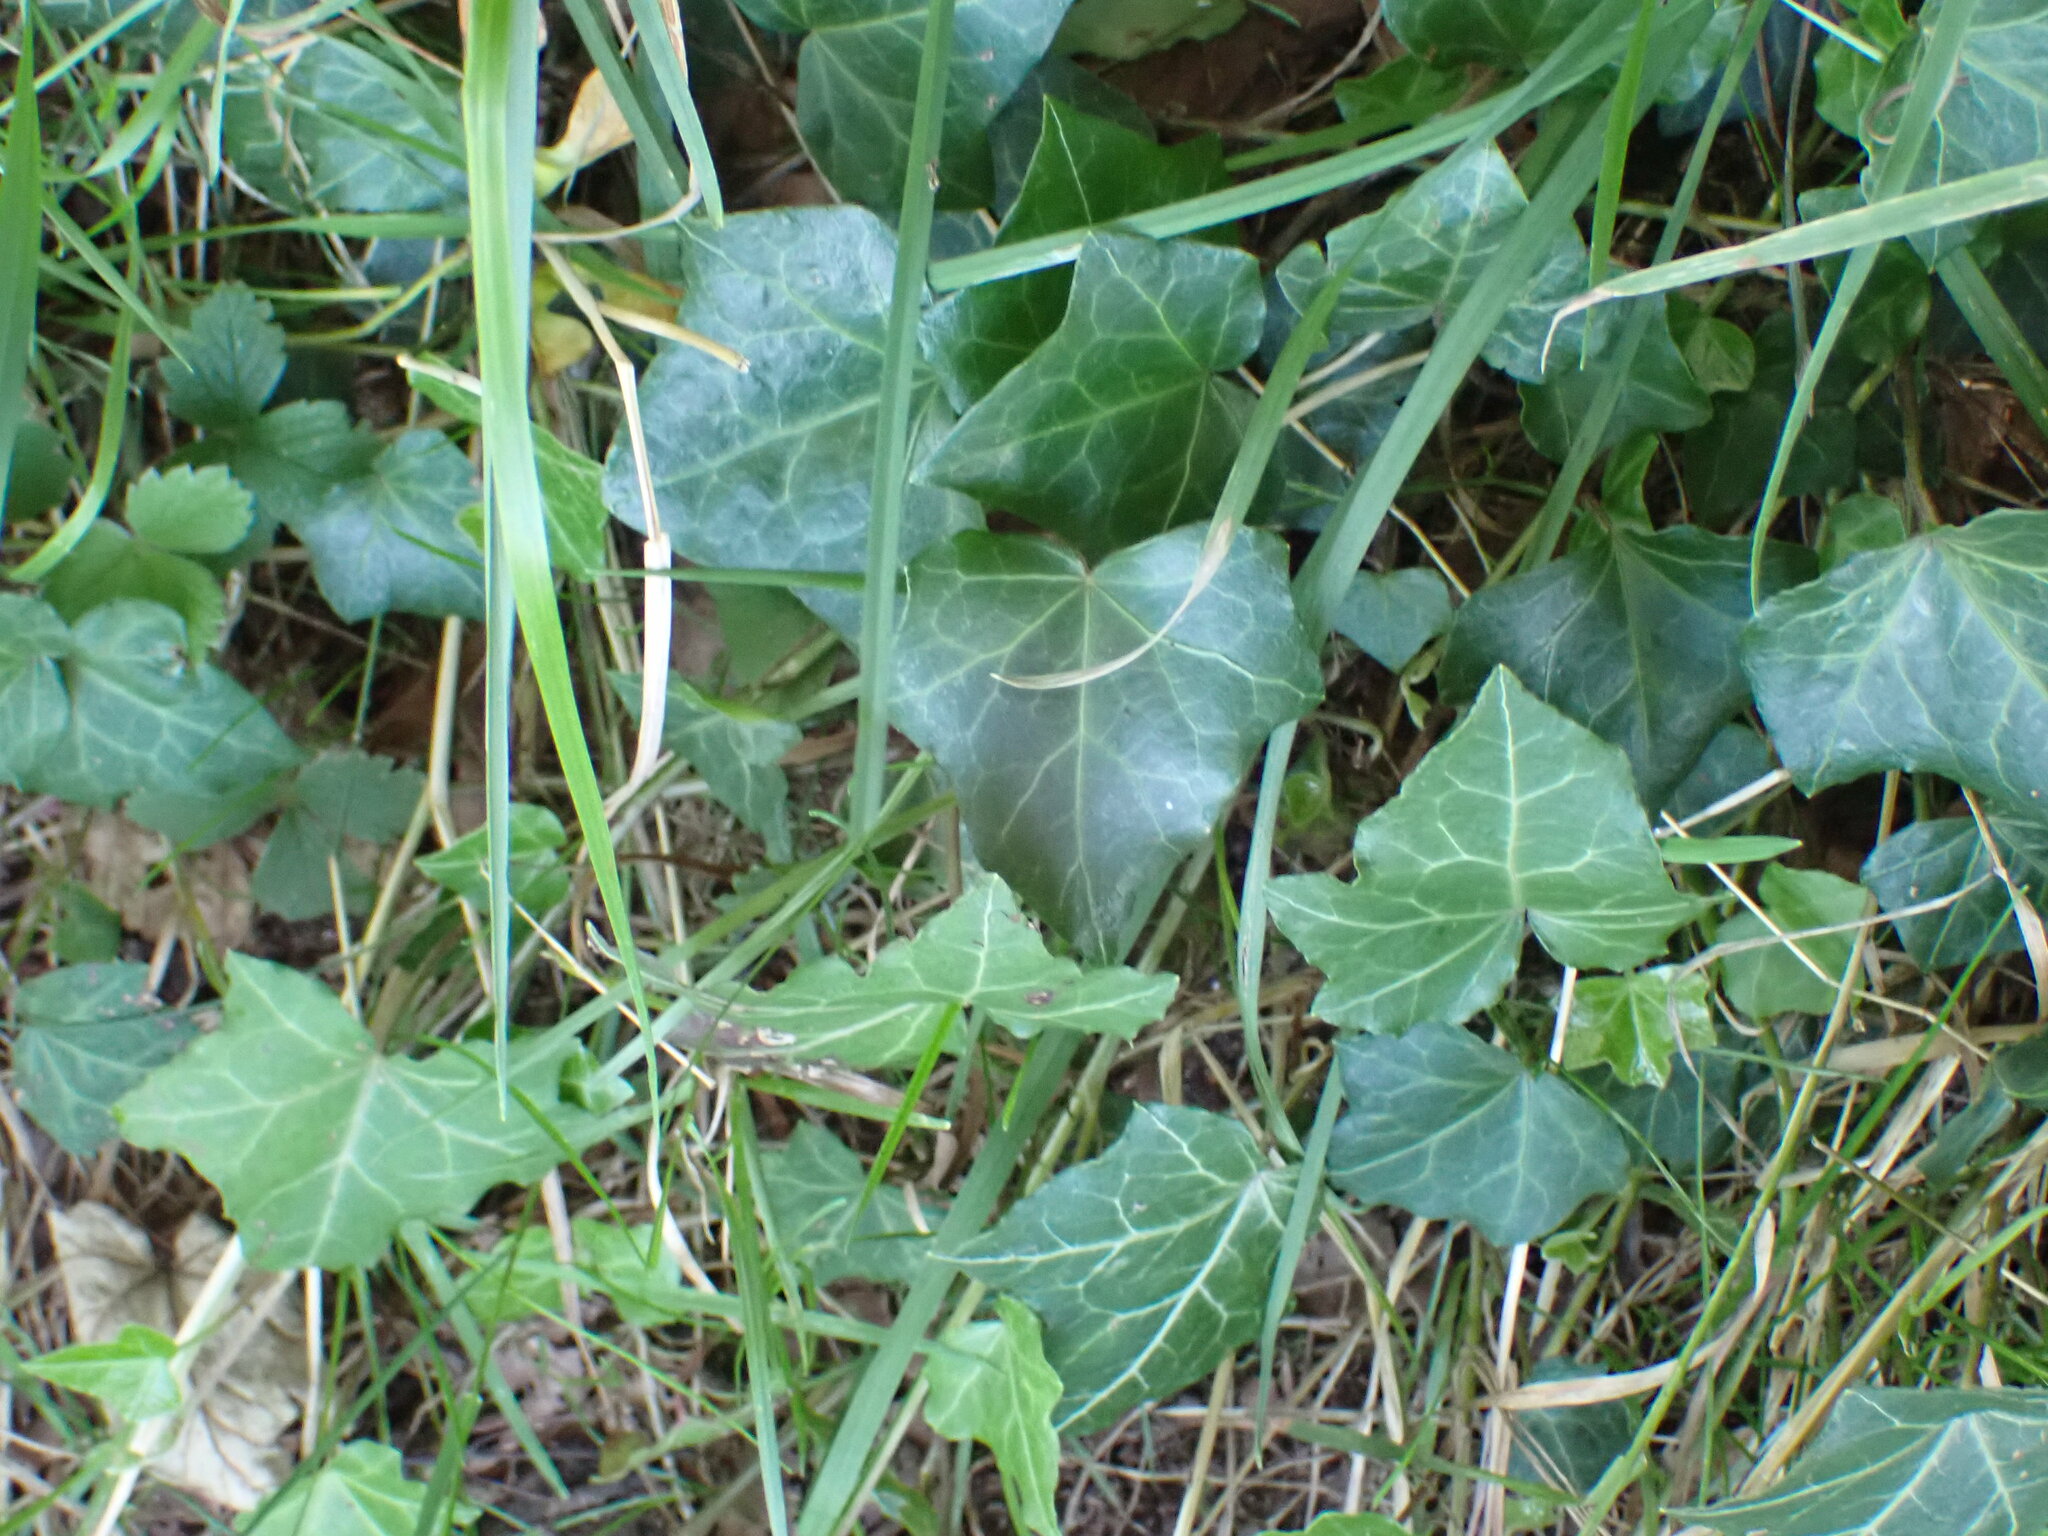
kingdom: Plantae
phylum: Tracheophyta
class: Magnoliopsida
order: Apiales
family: Araliaceae
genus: Hedera
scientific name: Hedera helix
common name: Ivy
